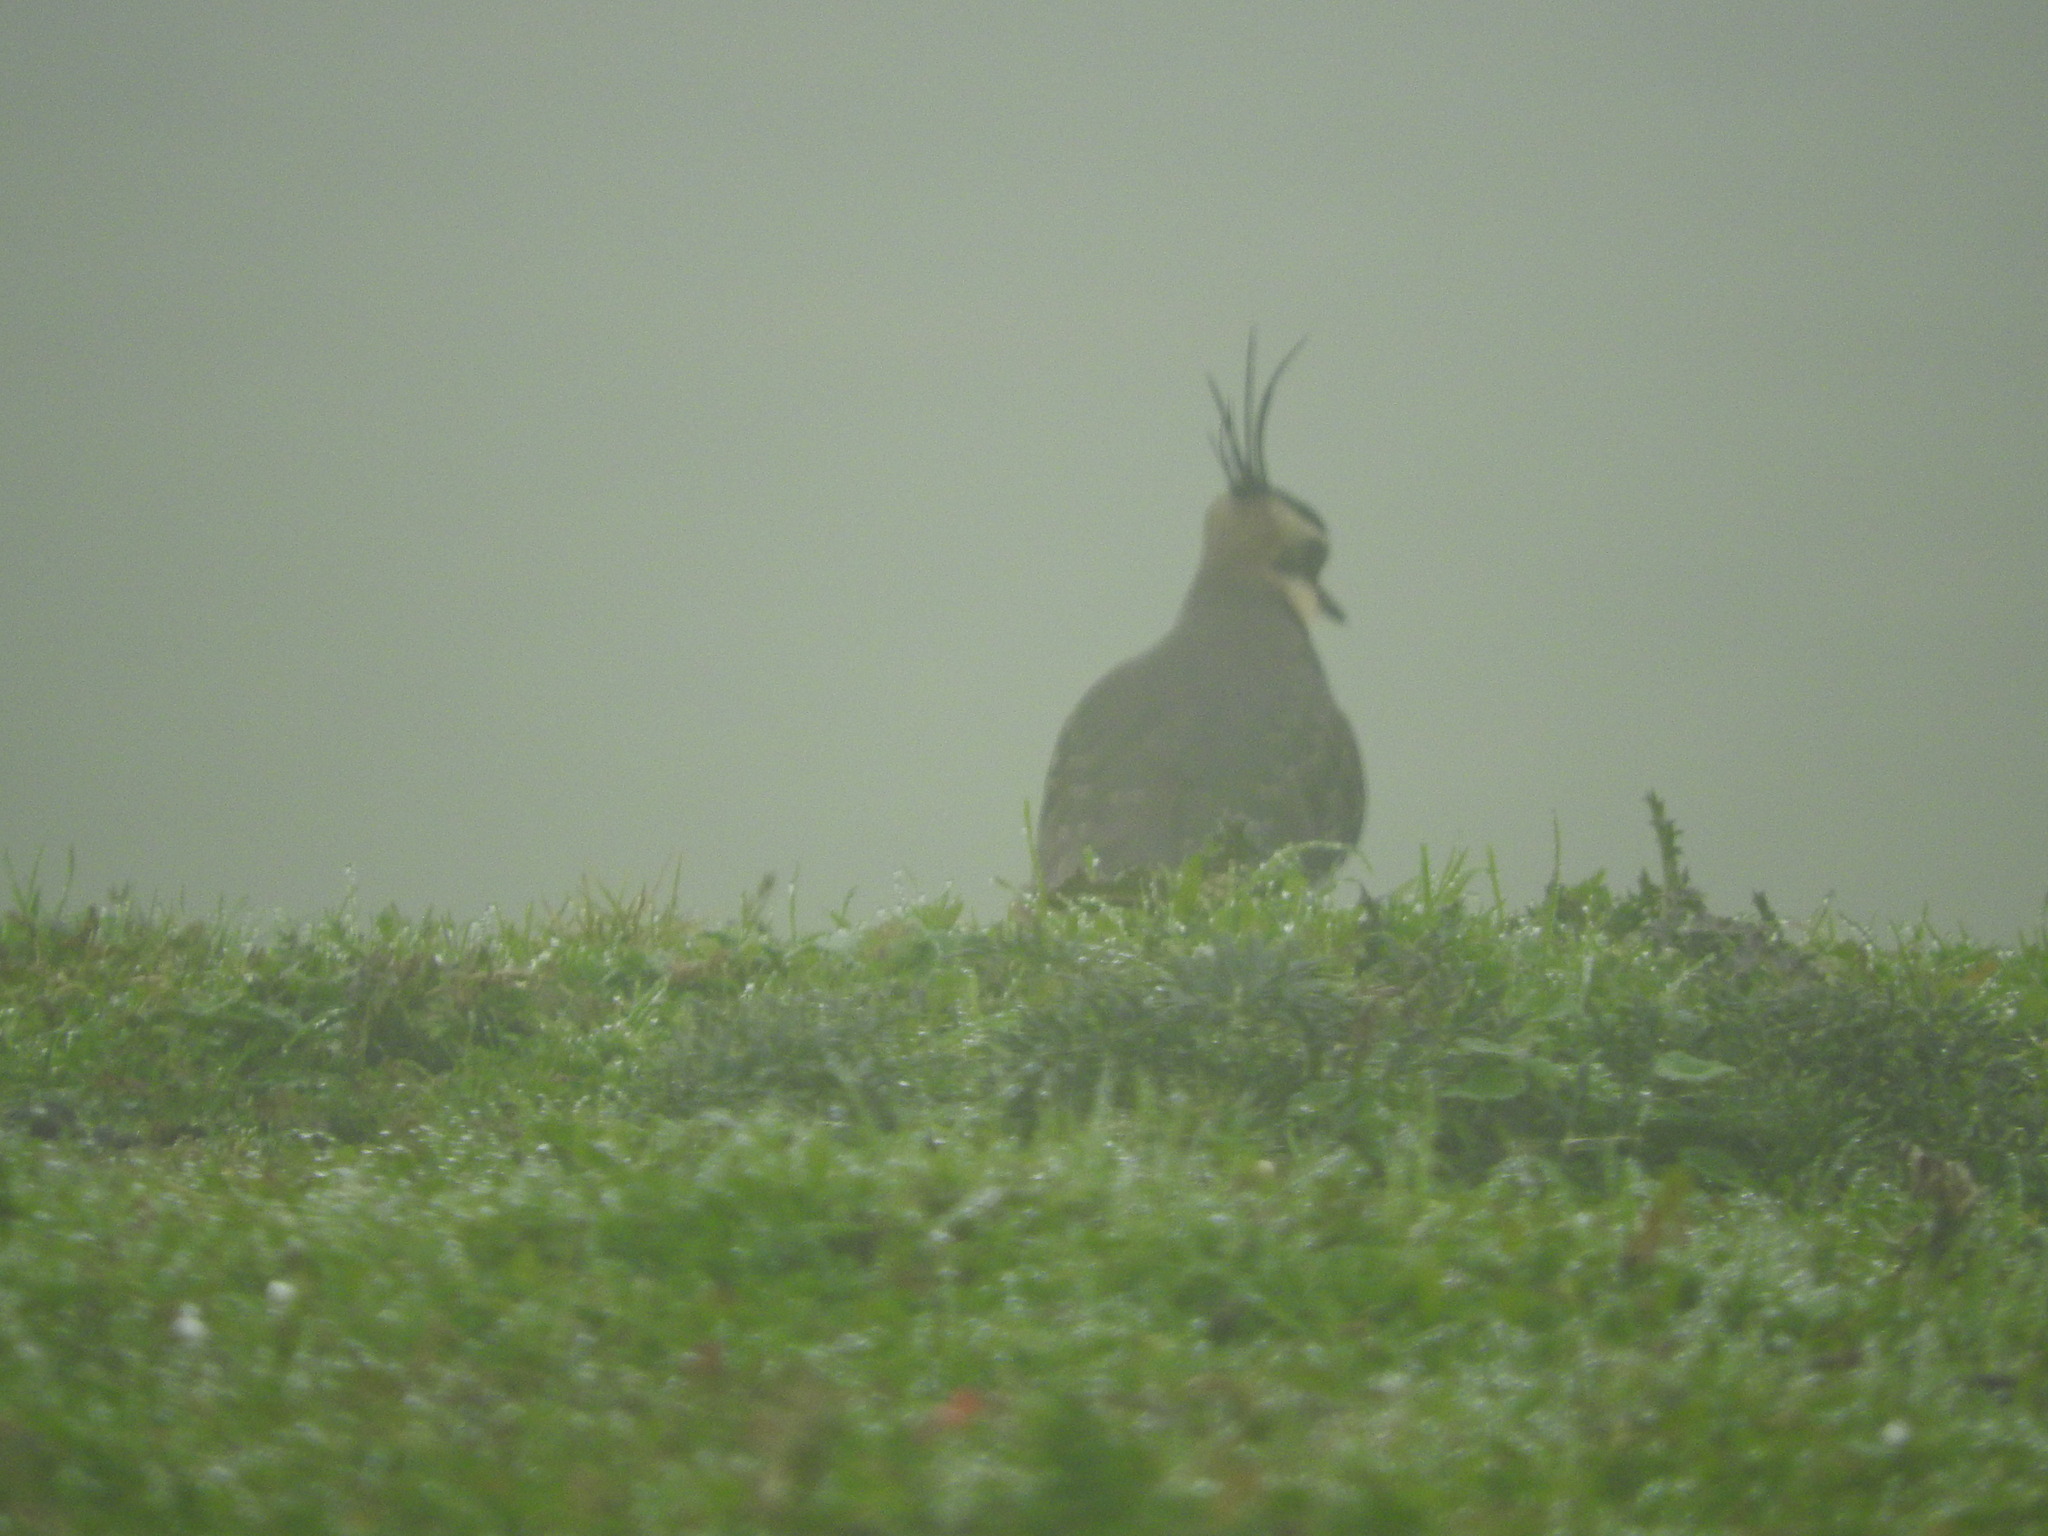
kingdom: Animalia
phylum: Chordata
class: Aves
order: Charadriiformes
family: Charadriidae
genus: Vanellus
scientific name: Vanellus vanellus
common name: Northern lapwing
